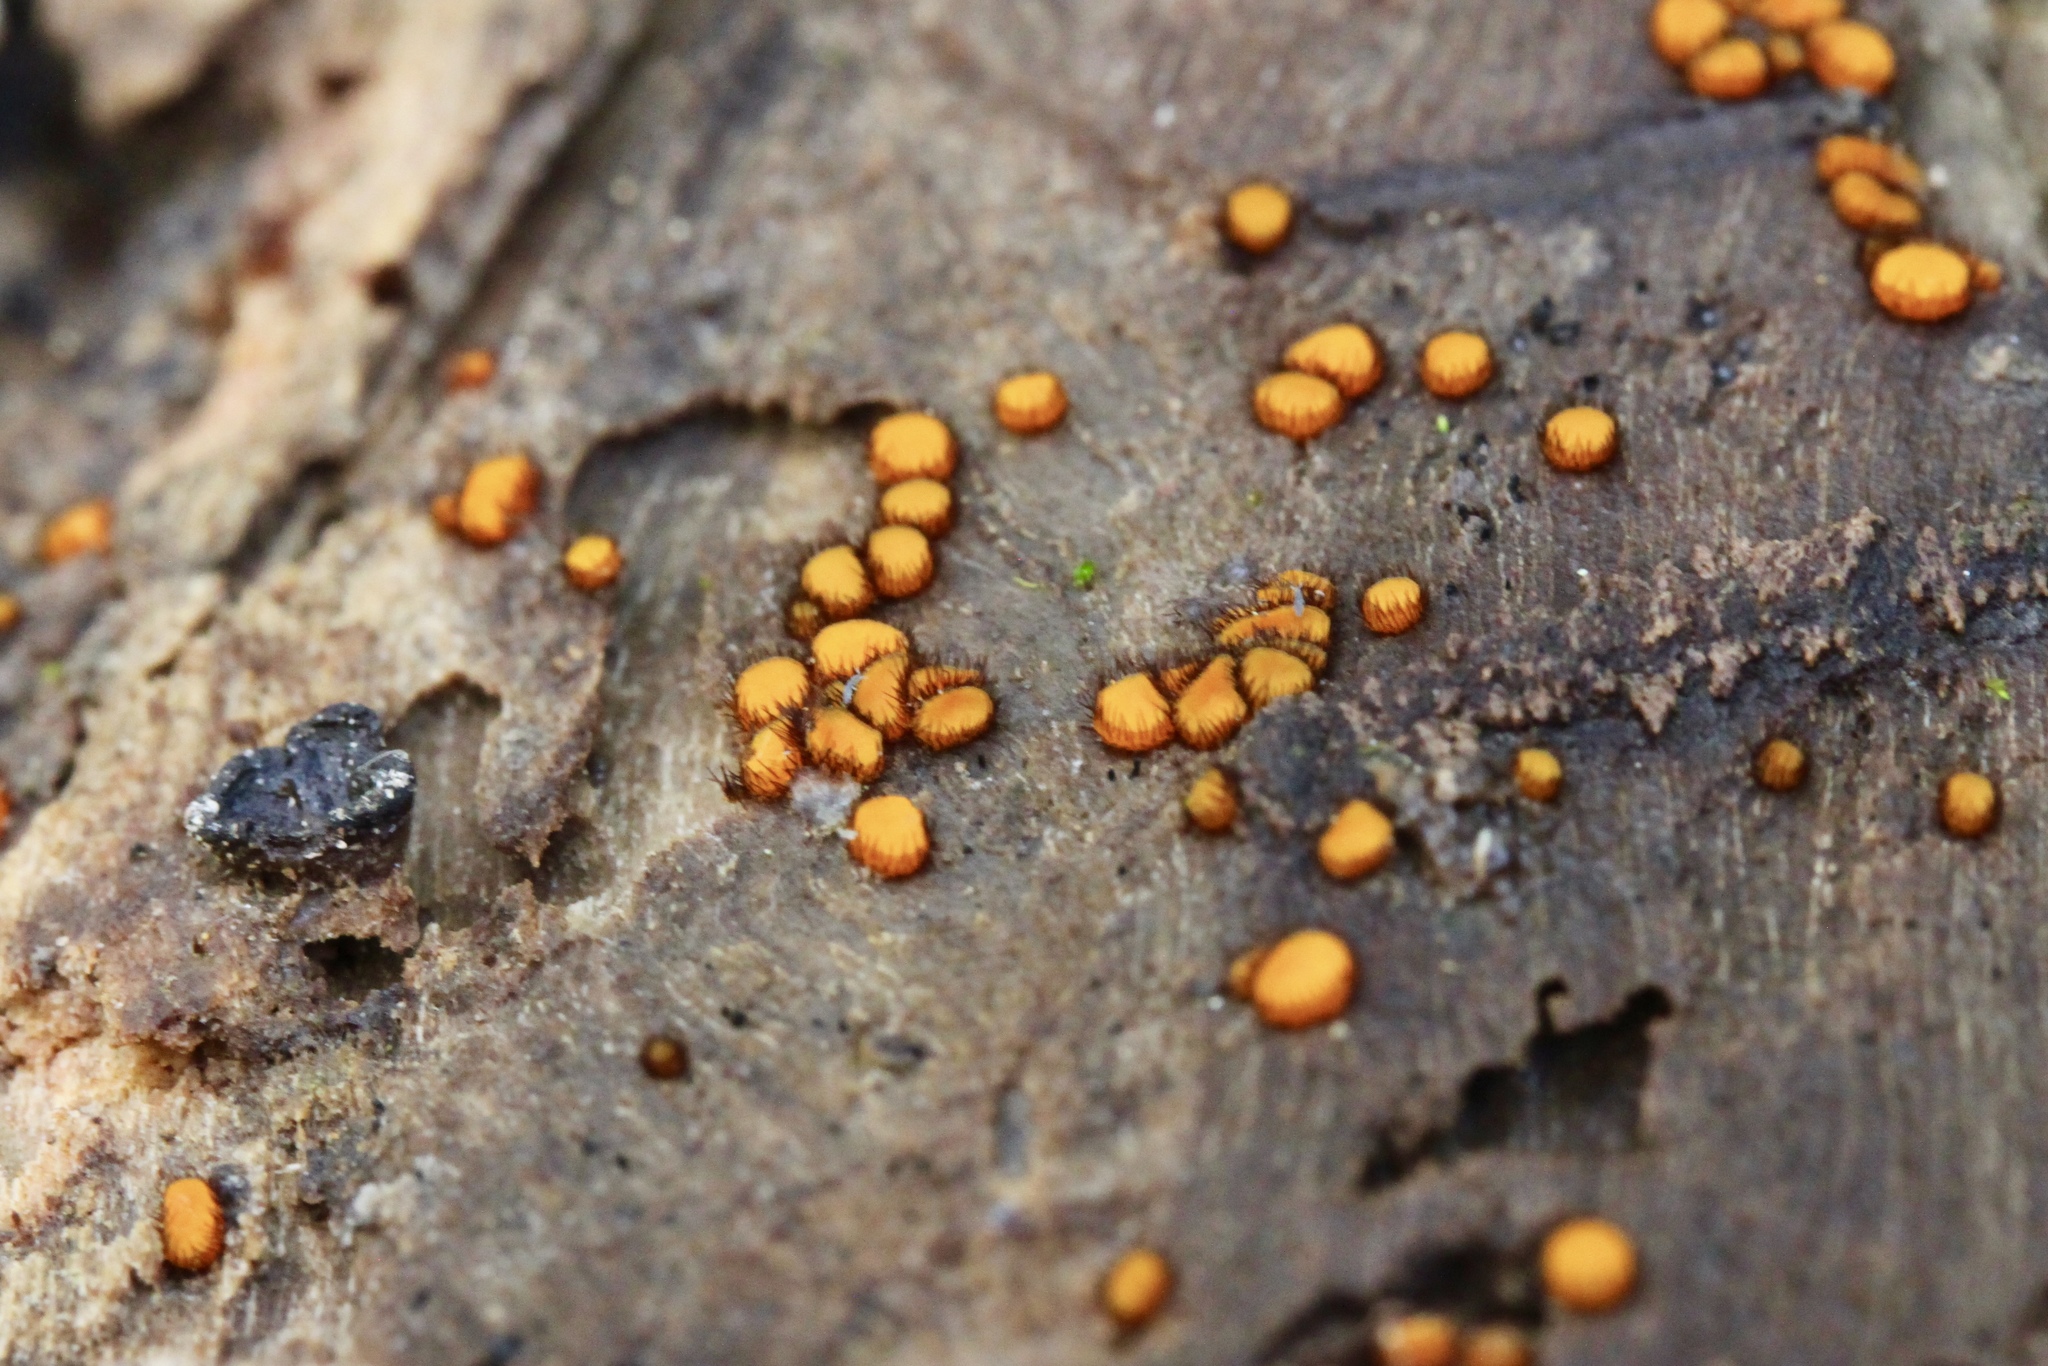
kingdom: Fungi
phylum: Ascomycota
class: Pezizomycetes
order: Pezizales
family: Pyronemataceae
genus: Scutellinia
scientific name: Scutellinia setosa
